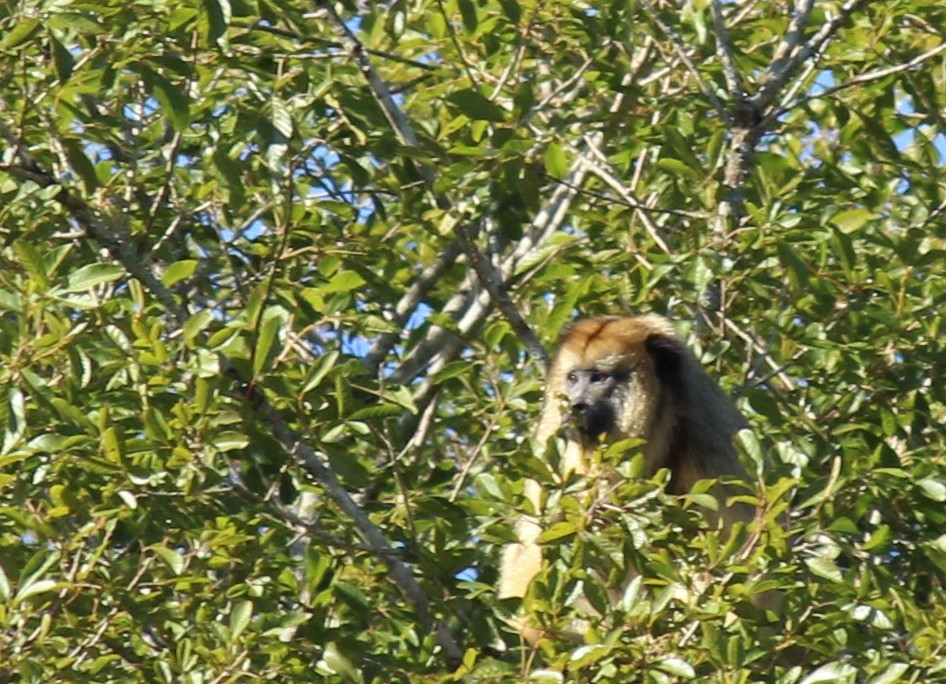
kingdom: Animalia
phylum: Chordata
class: Mammalia
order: Primates
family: Atelidae
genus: Alouatta
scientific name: Alouatta caraya
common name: Black howler
